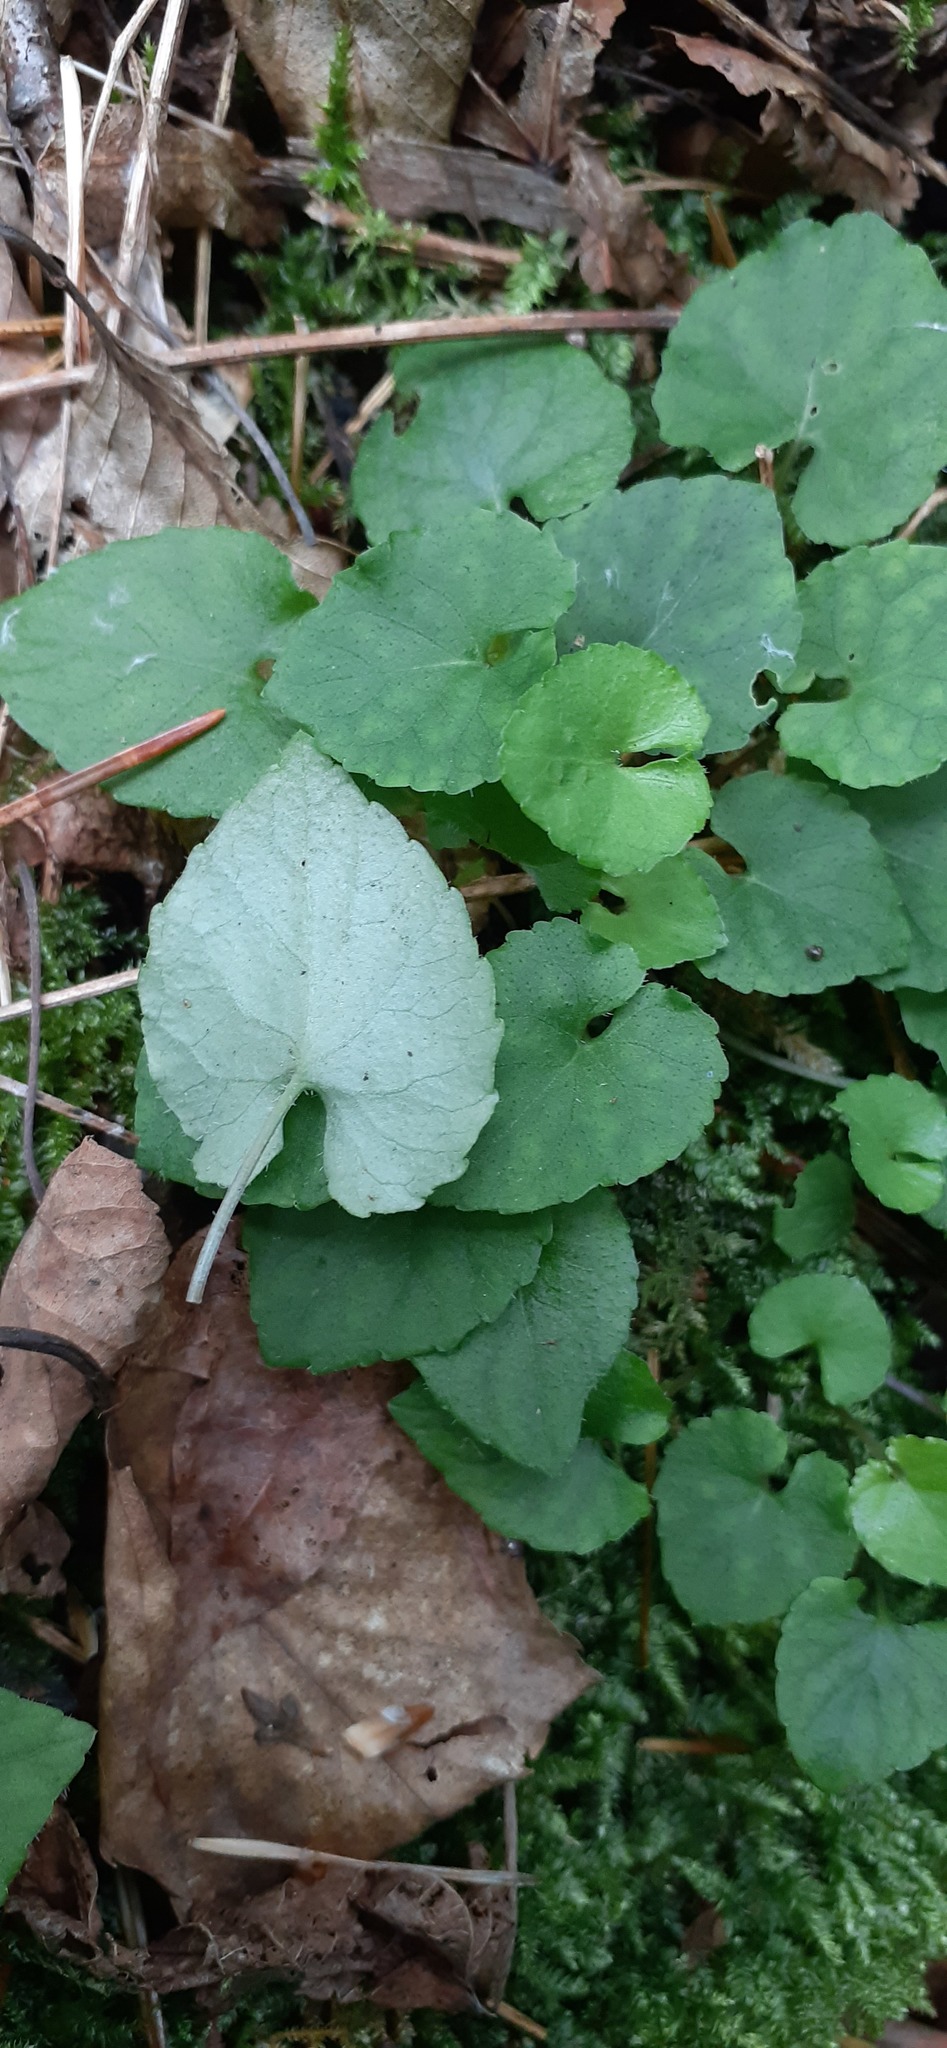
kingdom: Plantae
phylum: Tracheophyta
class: Magnoliopsida
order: Malpighiales
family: Violaceae
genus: Viola
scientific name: Viola selkirkii
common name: Selkirk's violet
